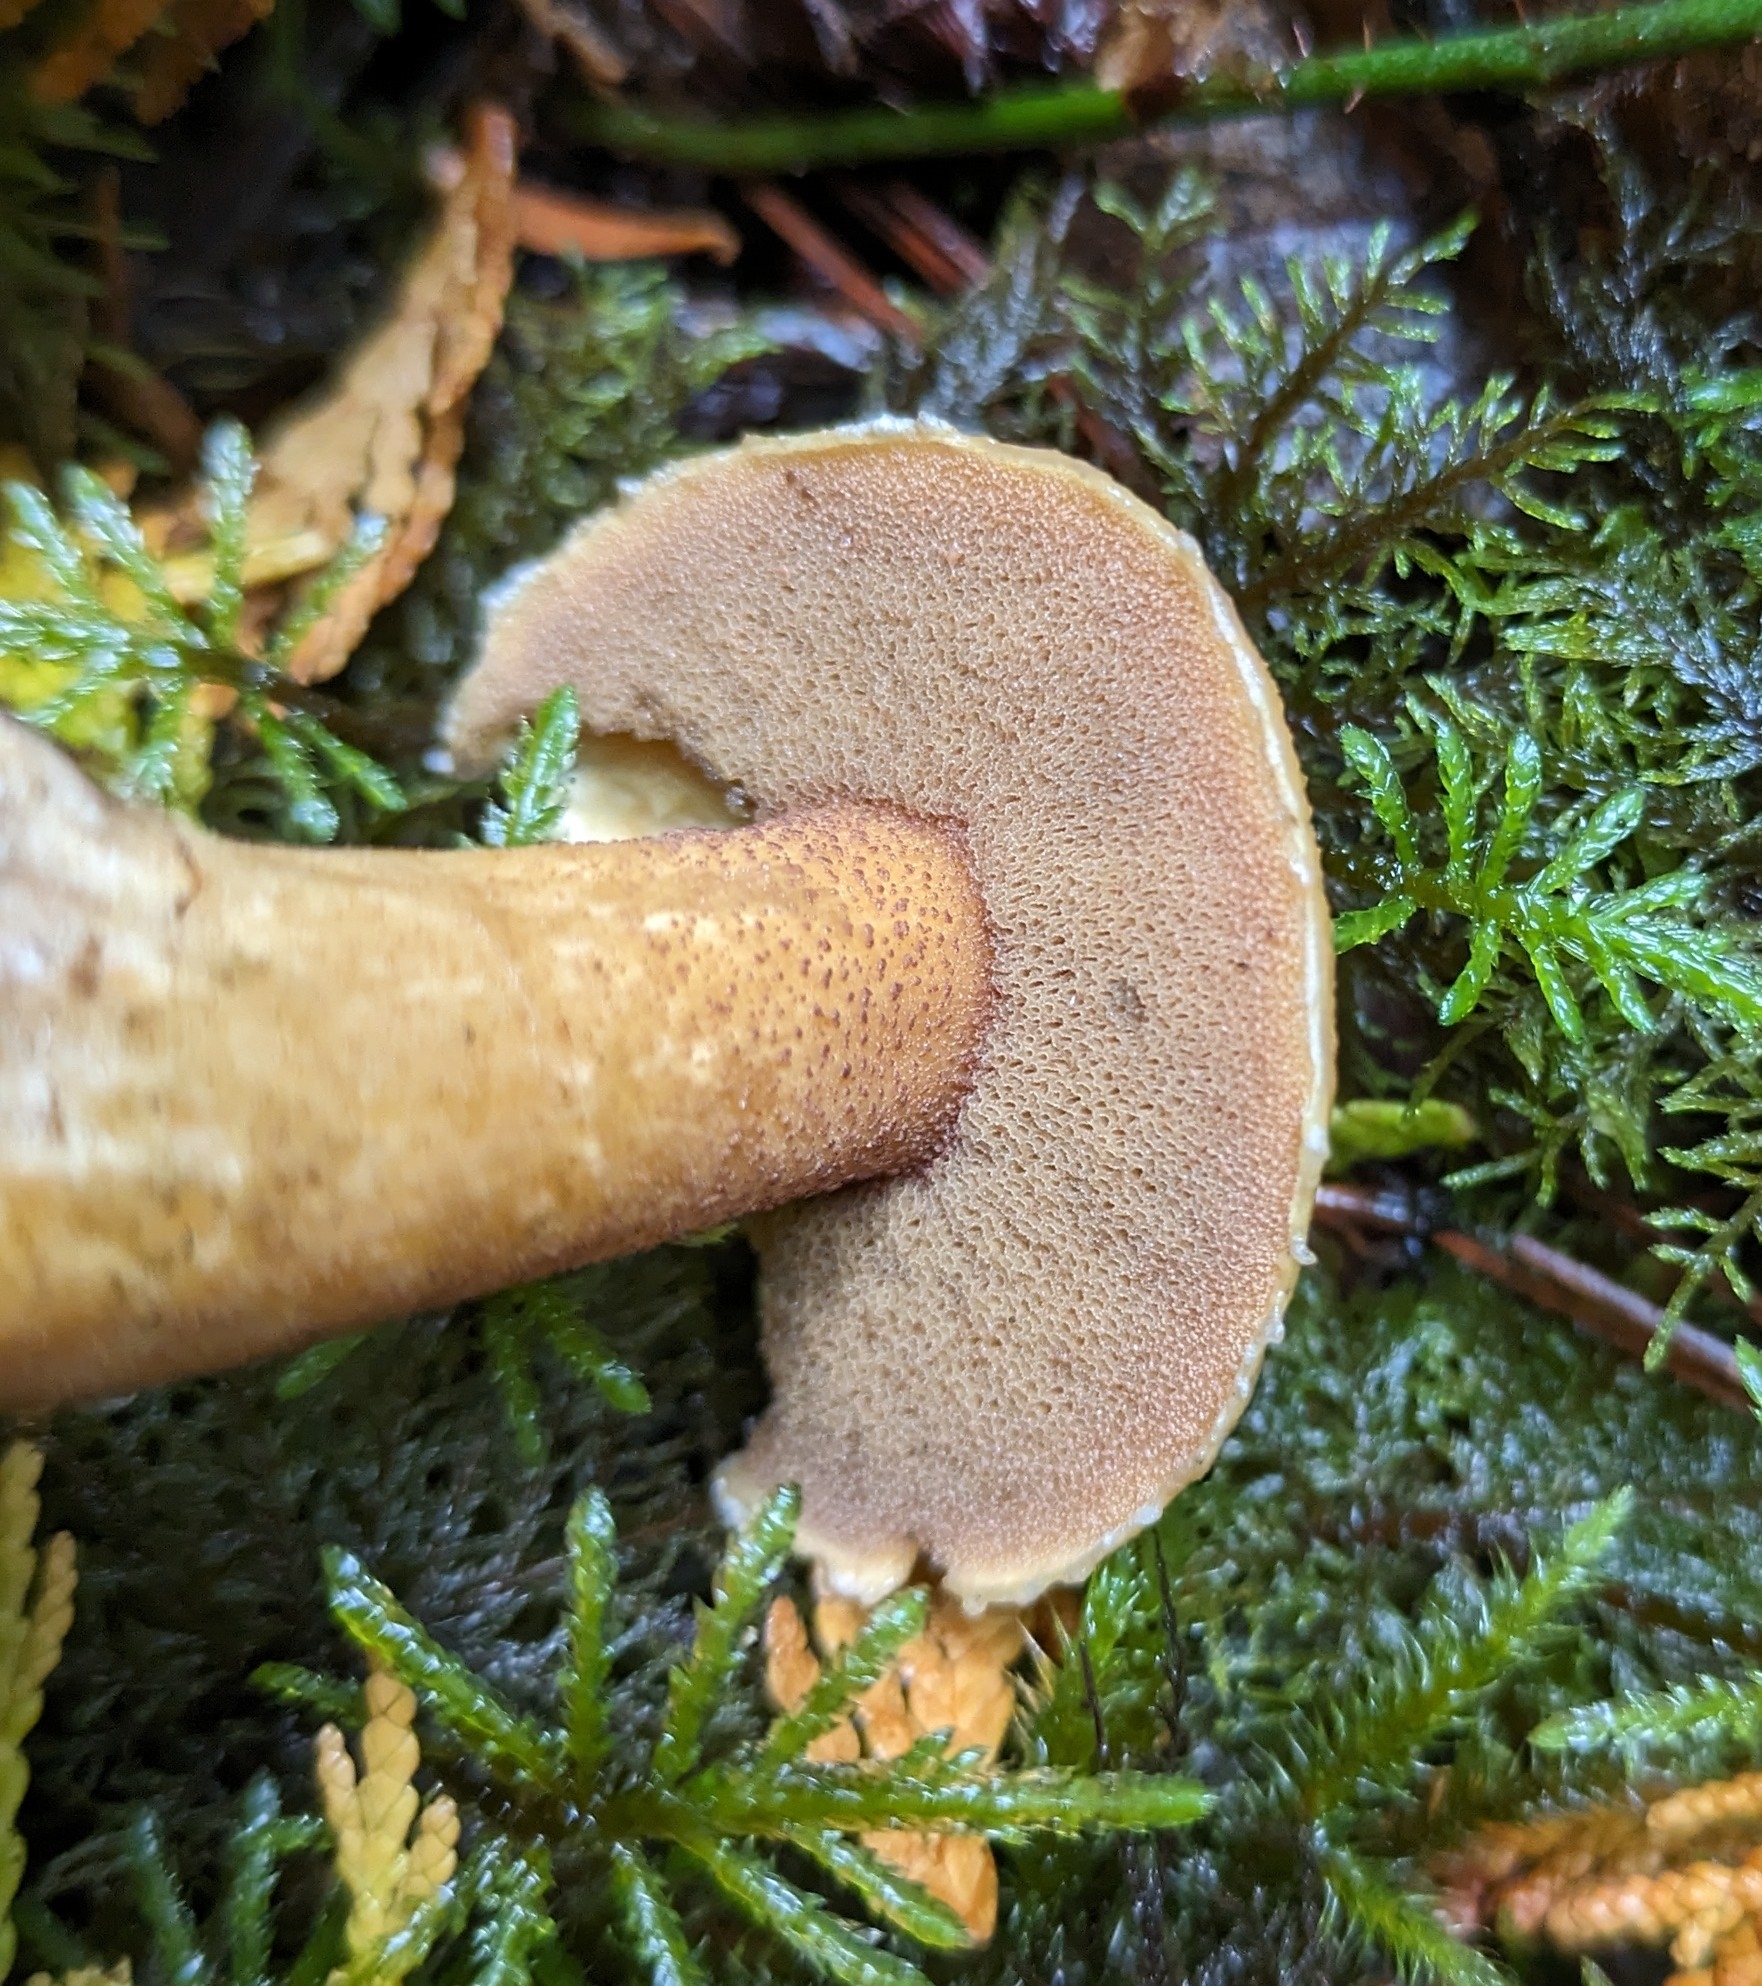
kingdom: Fungi
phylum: Basidiomycota
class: Agaricomycetes
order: Boletales
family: Suillaceae
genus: Suillus
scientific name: Suillus tomentosus
